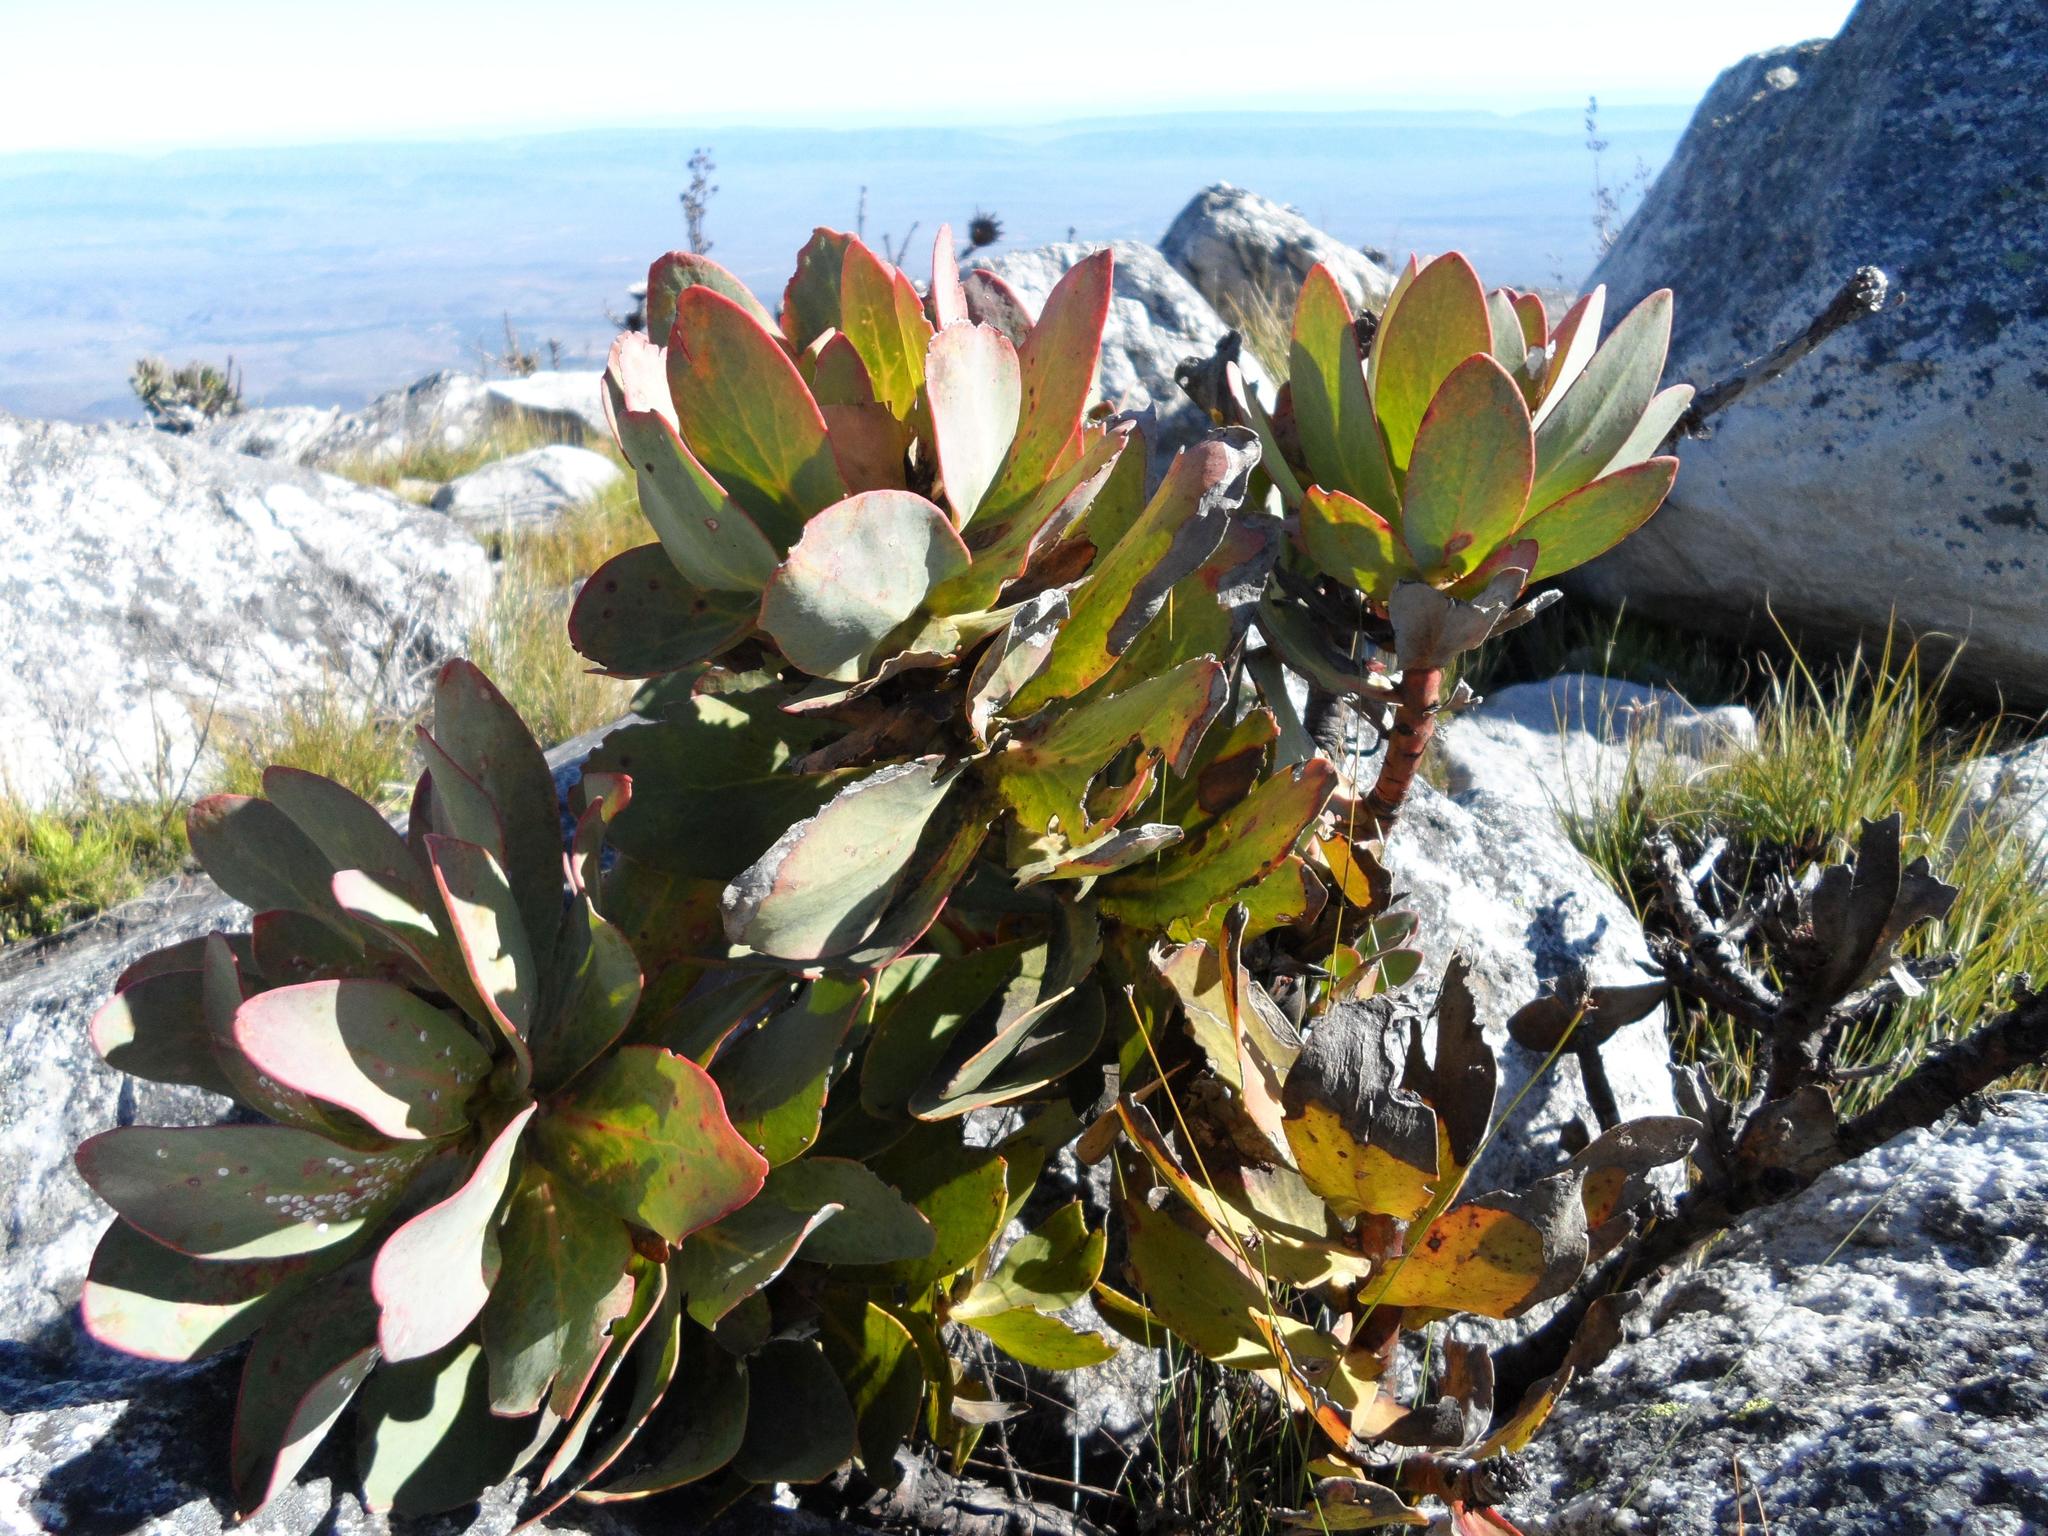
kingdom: Plantae
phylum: Tracheophyta
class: Magnoliopsida
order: Proteales
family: Proteaceae
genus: Protea
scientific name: Protea grandiceps
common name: Red sugarbush
